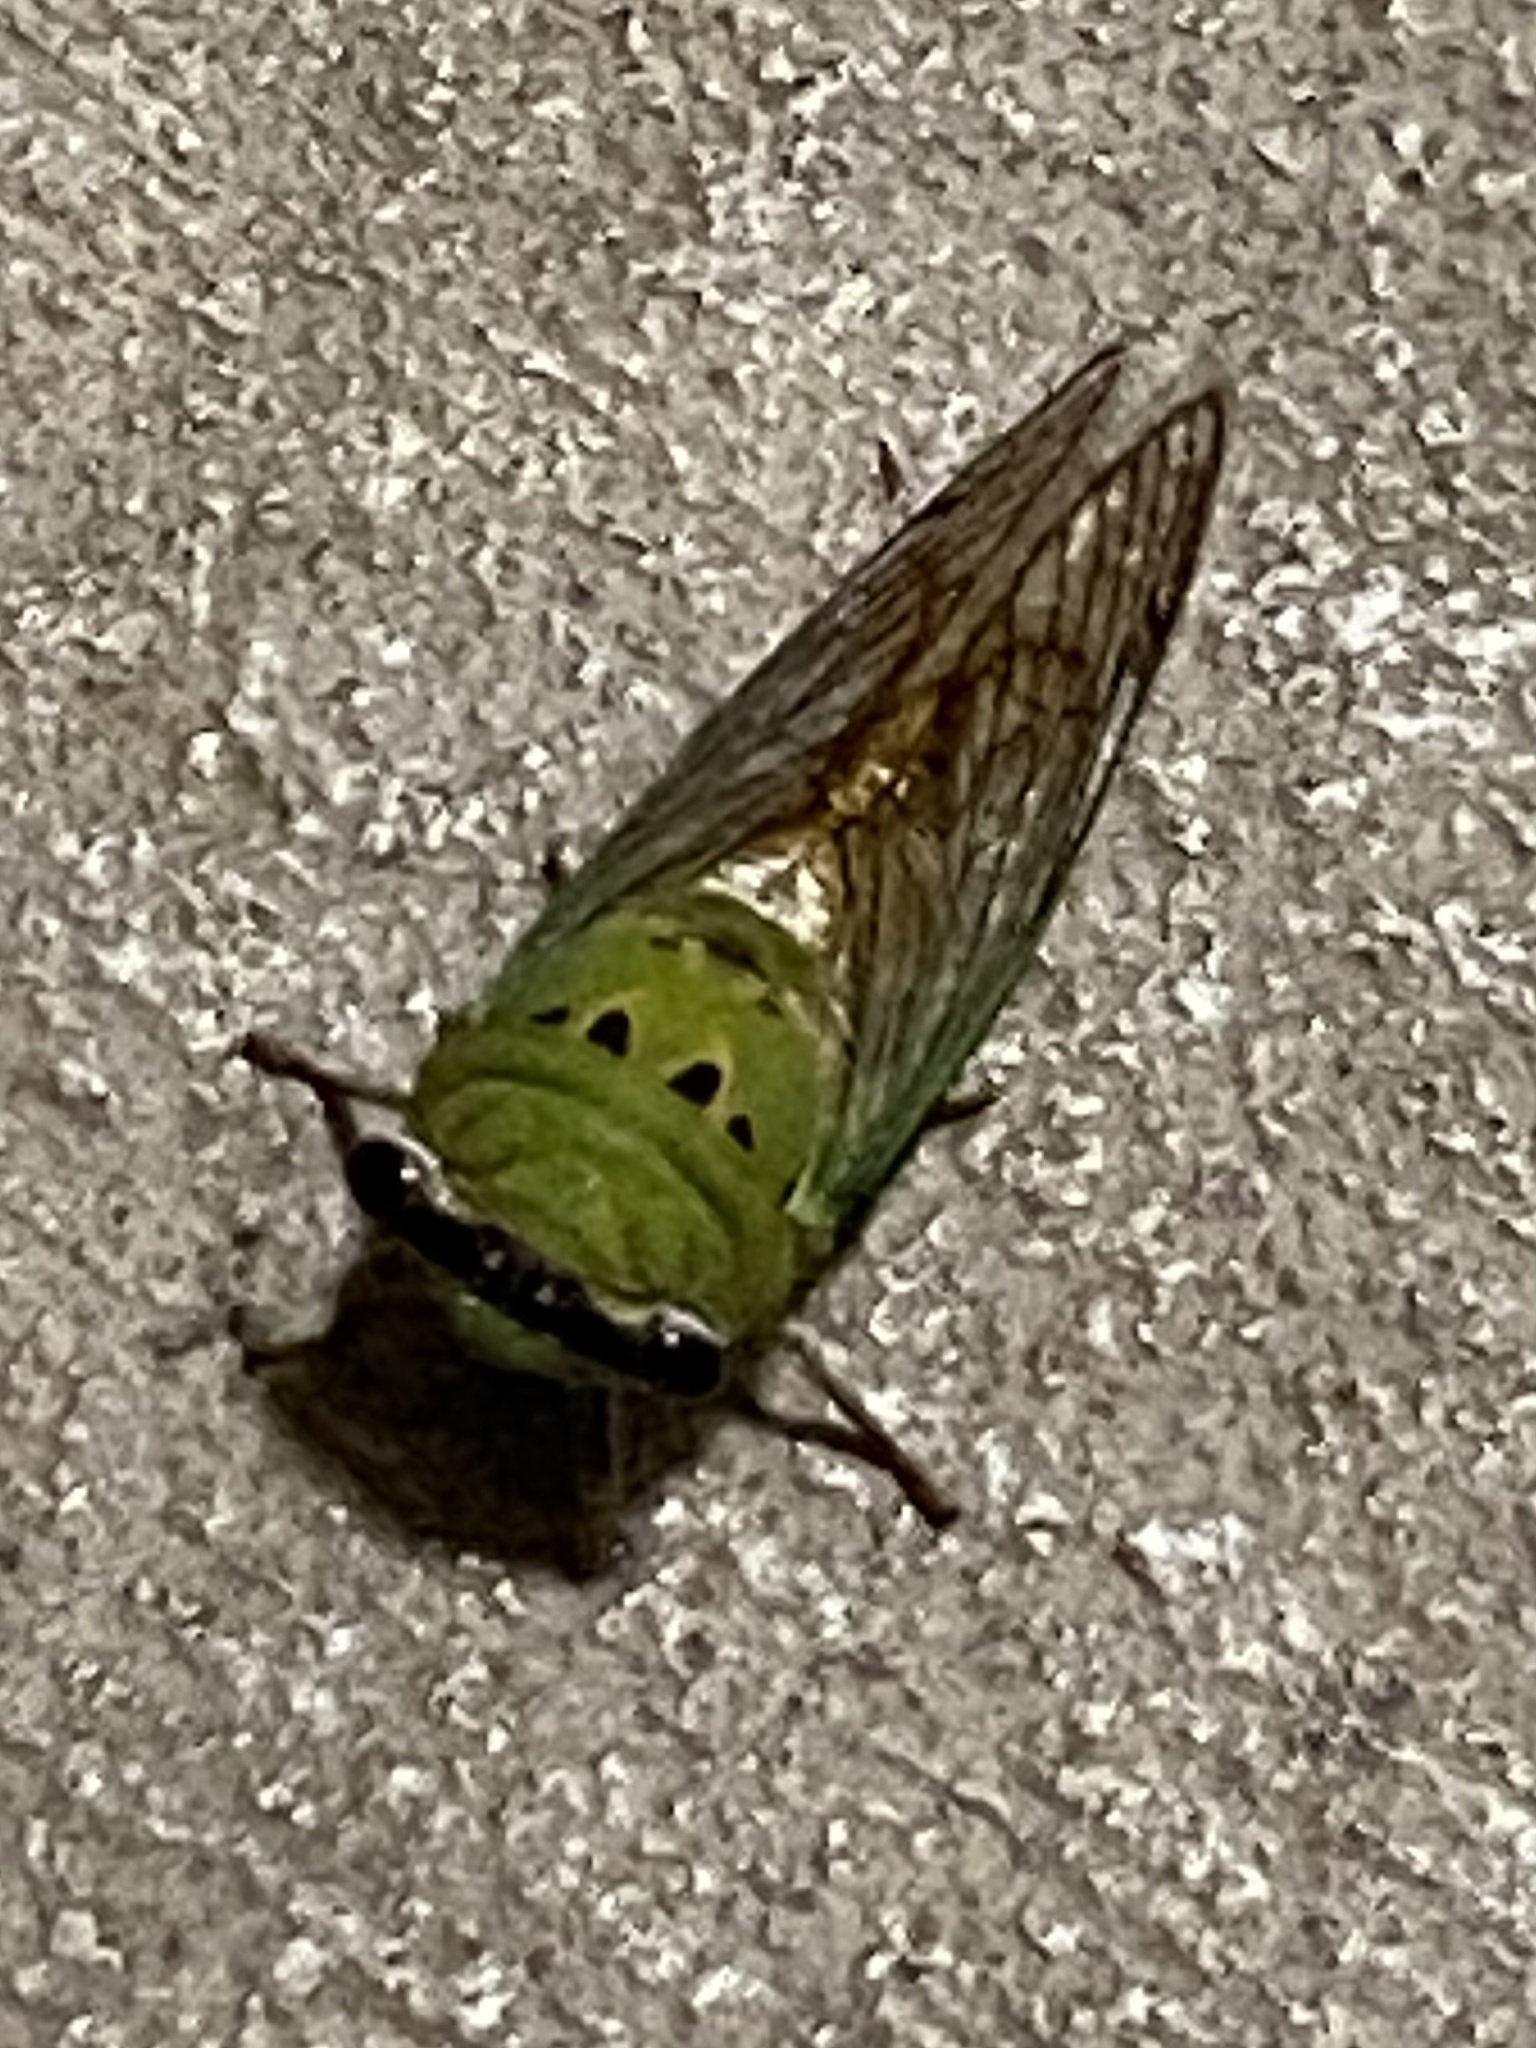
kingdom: Animalia
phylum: Arthropoda
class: Insecta
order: Hemiptera
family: Cicadidae
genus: Neotibicen
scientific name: Neotibicen superbus
